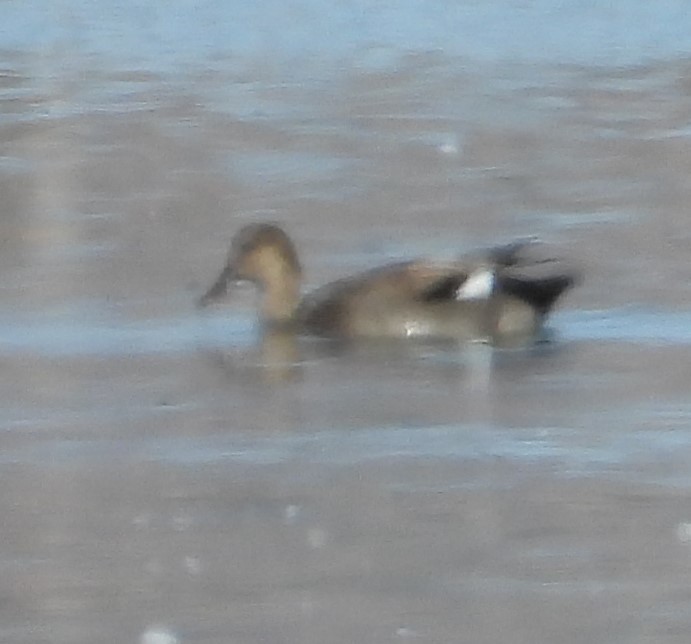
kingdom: Animalia
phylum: Chordata
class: Aves
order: Anseriformes
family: Anatidae
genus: Mareca
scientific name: Mareca strepera
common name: Gadwall
